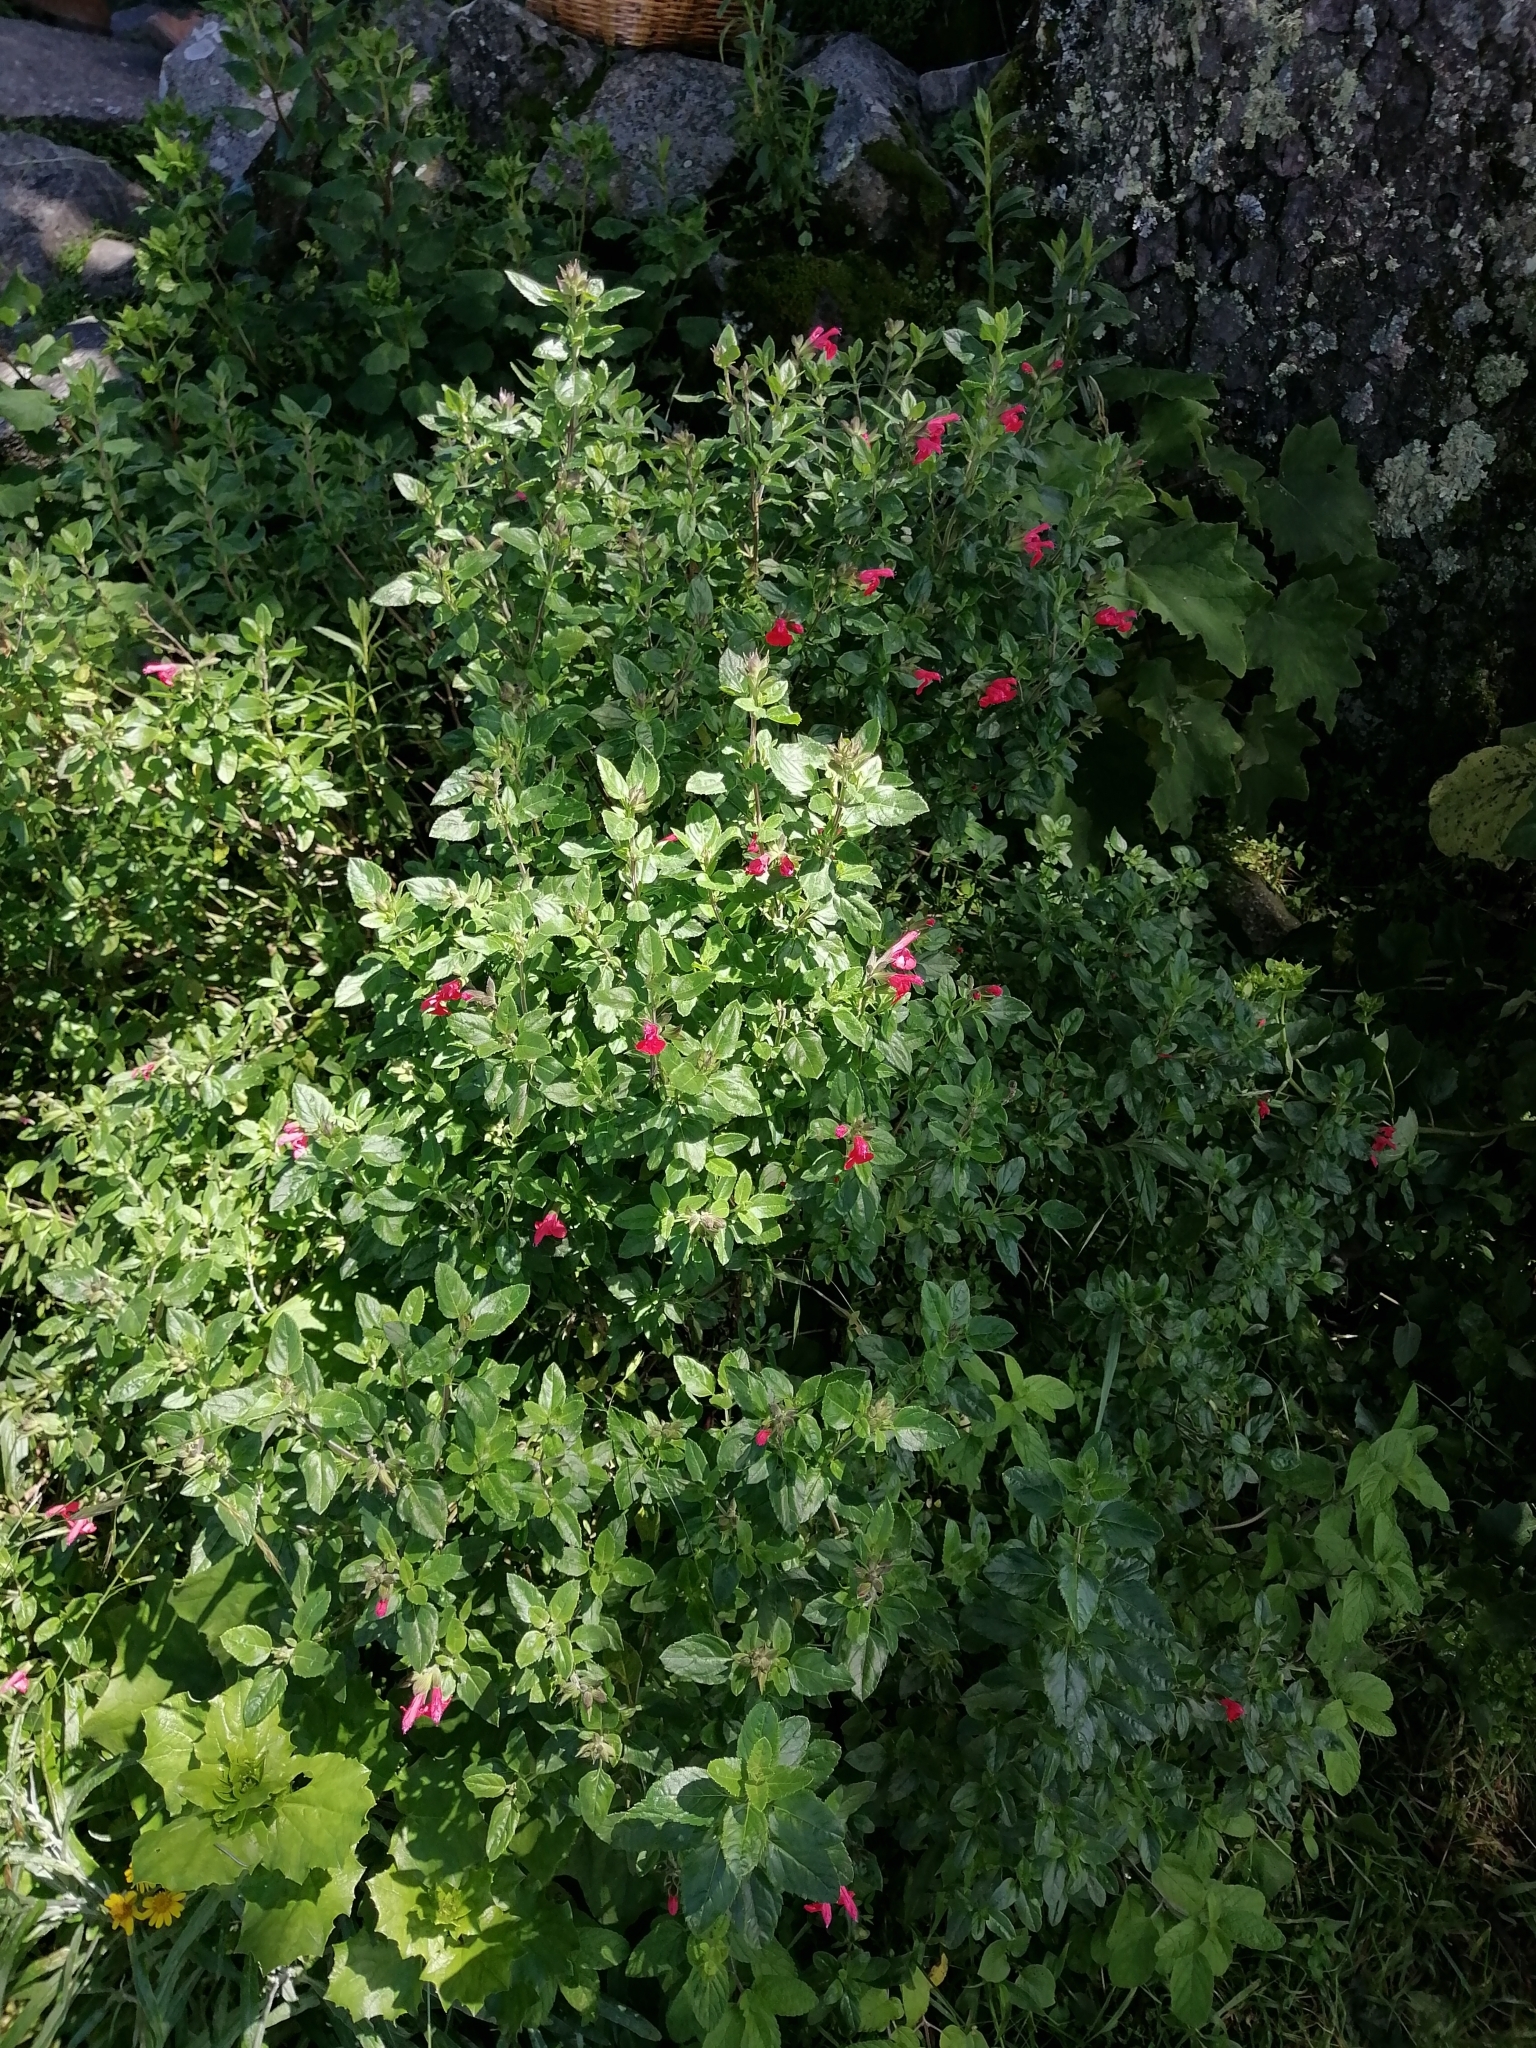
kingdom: Plantae
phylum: Tracheophyta
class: Magnoliopsida
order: Lamiales
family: Lamiaceae
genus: Salvia
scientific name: Salvia microphylla
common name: Baby sage
